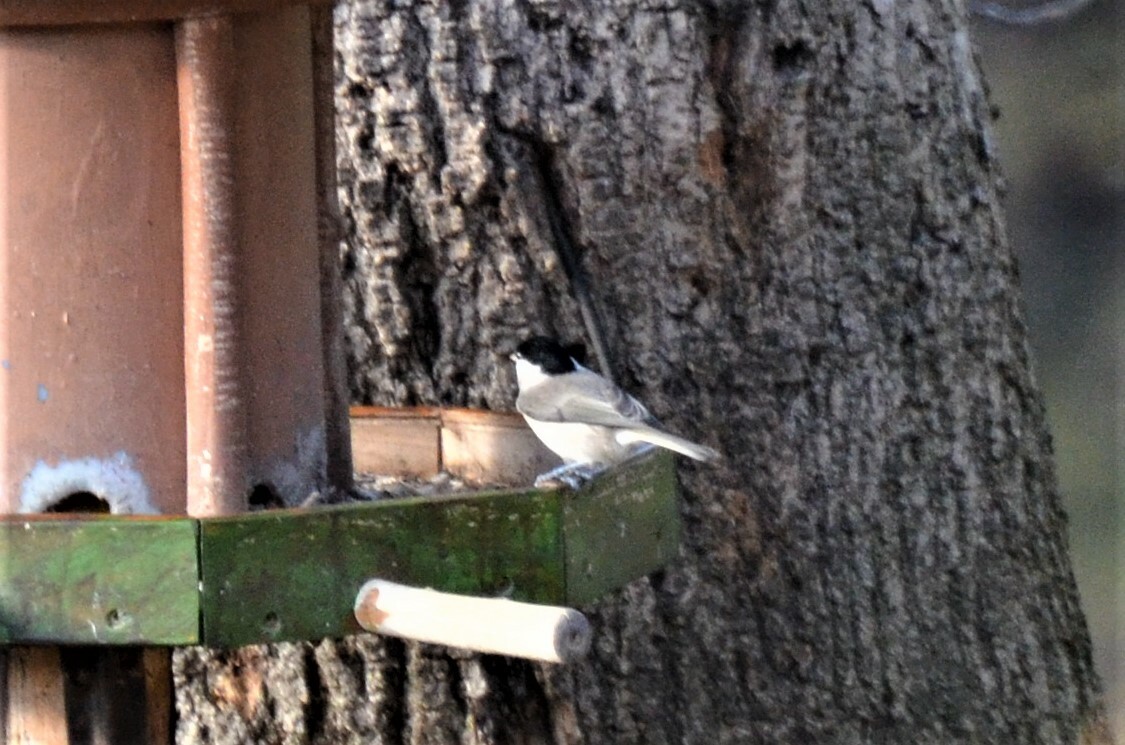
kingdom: Animalia
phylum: Chordata
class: Aves
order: Passeriformes
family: Paridae
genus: Poecile
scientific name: Poecile palustris
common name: Marsh tit
